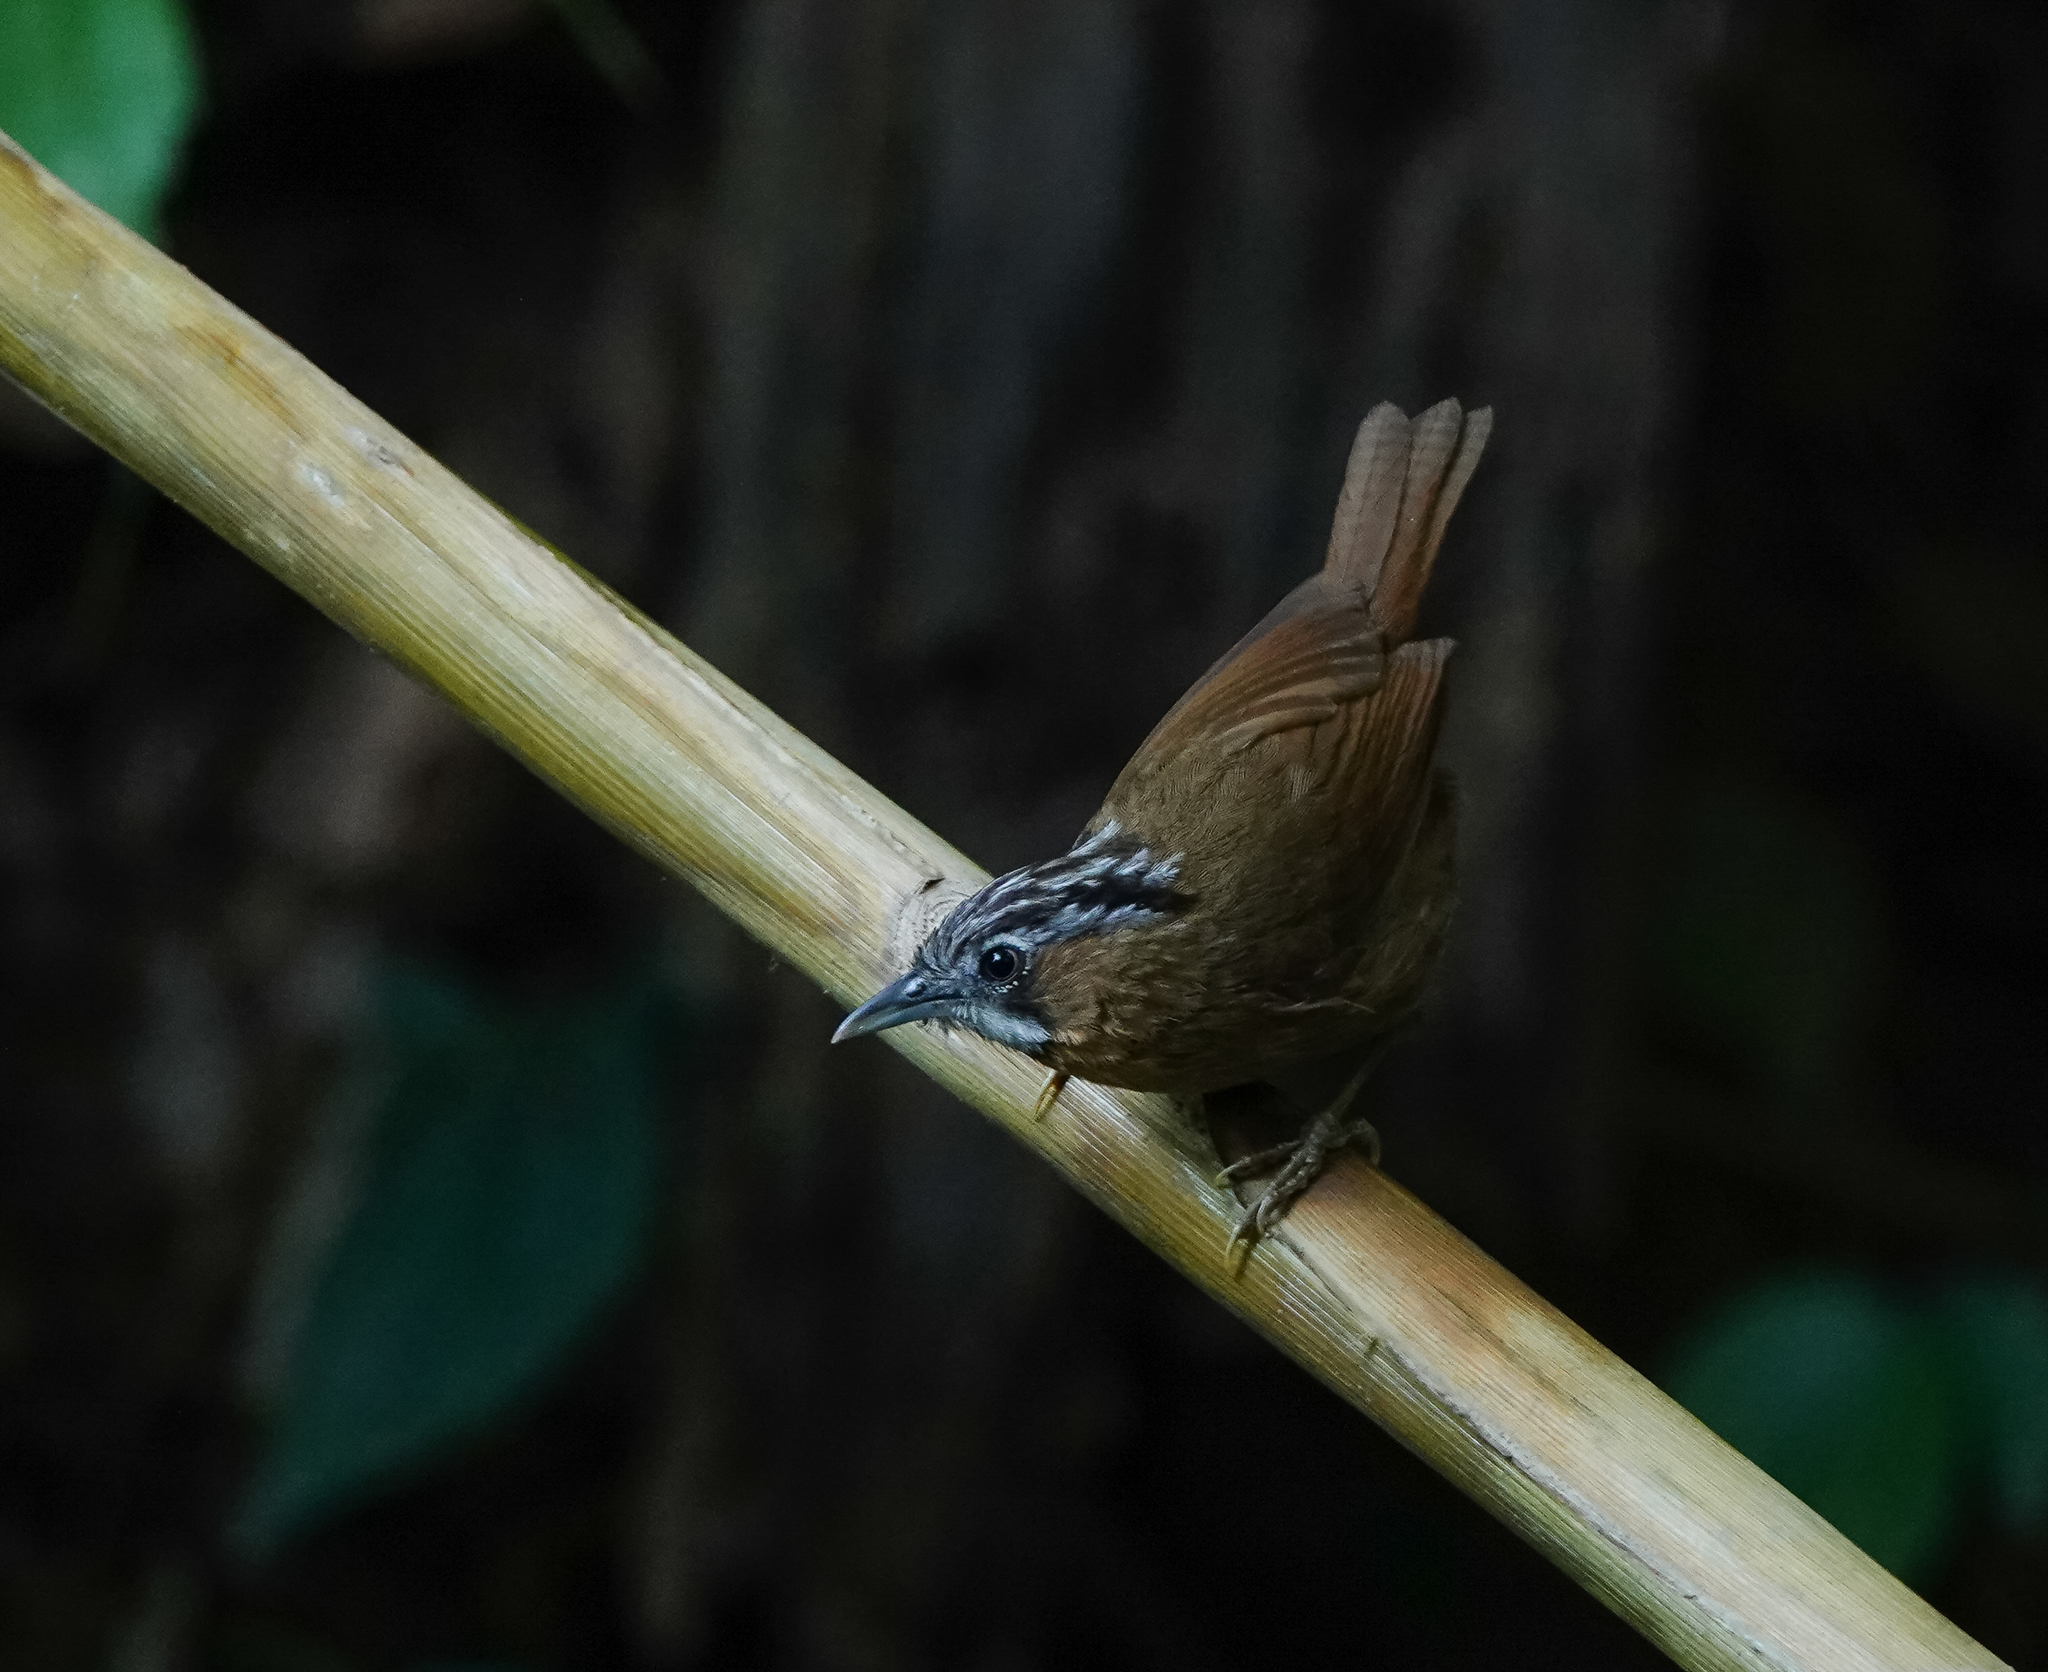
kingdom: Animalia
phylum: Chordata
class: Aves
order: Passeriformes
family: Timaliidae
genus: Stachyris
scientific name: Stachyris nigriceps
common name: Grey-throated babbler
